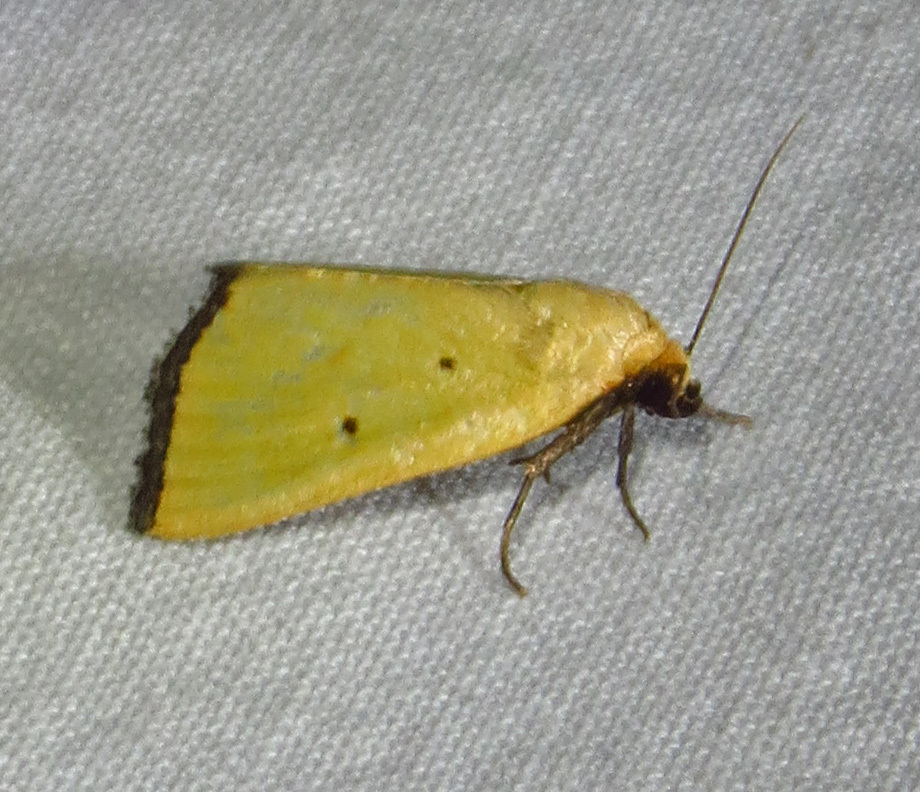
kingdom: Animalia
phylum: Arthropoda
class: Insecta
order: Lepidoptera
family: Noctuidae
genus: Marimatha
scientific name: Marimatha nigrofimbria
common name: Black-bordered lemon moth
